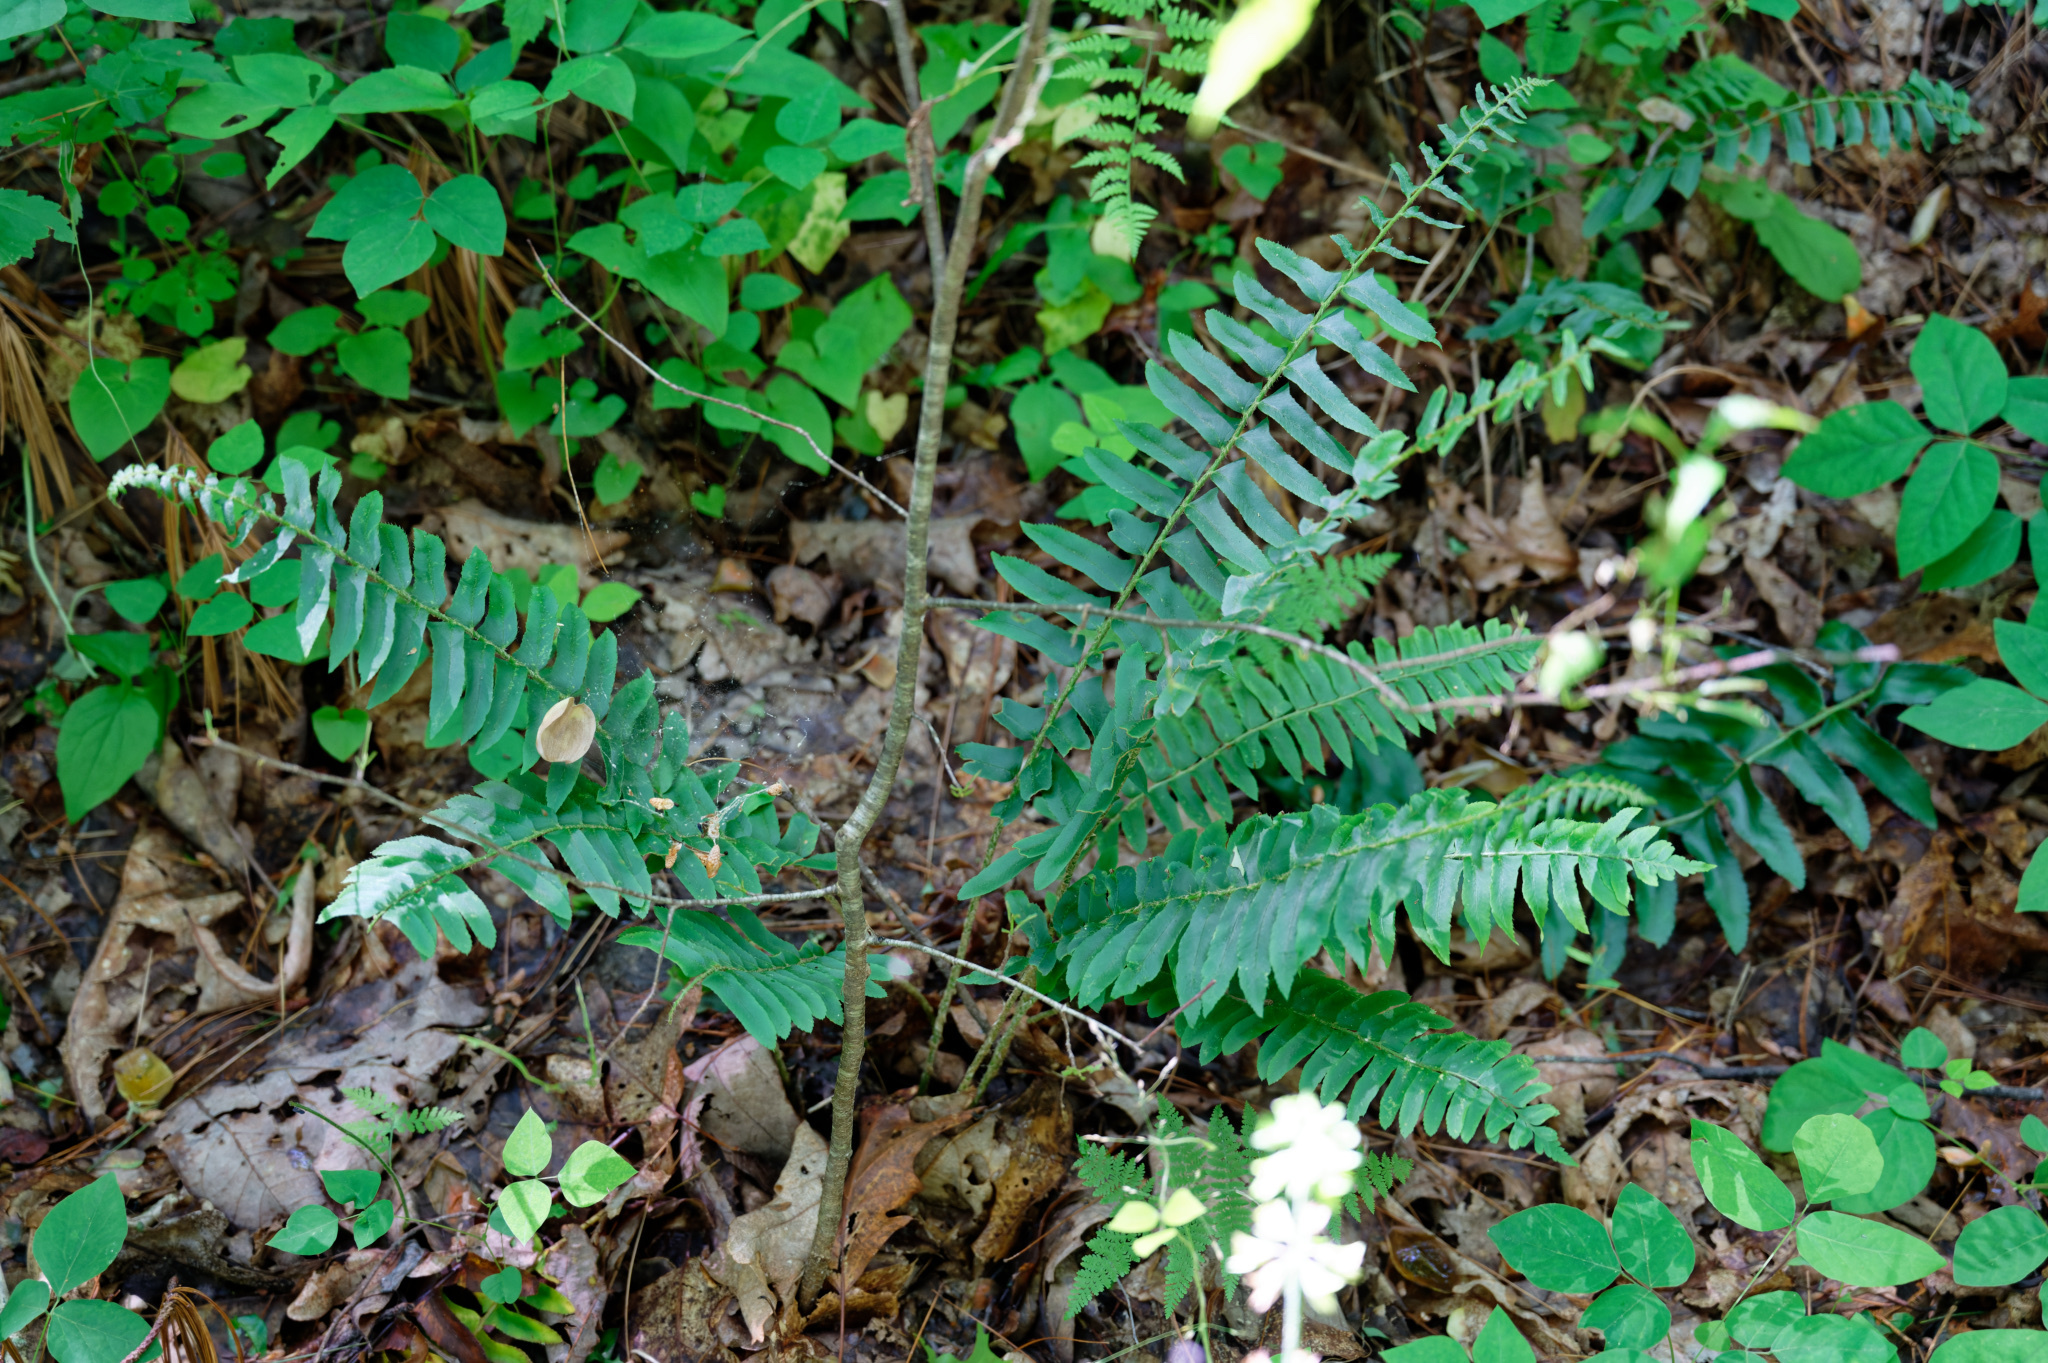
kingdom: Plantae
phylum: Tracheophyta
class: Polypodiopsida
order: Polypodiales
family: Dryopteridaceae
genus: Polystichum
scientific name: Polystichum acrostichoides
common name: Christmas fern
